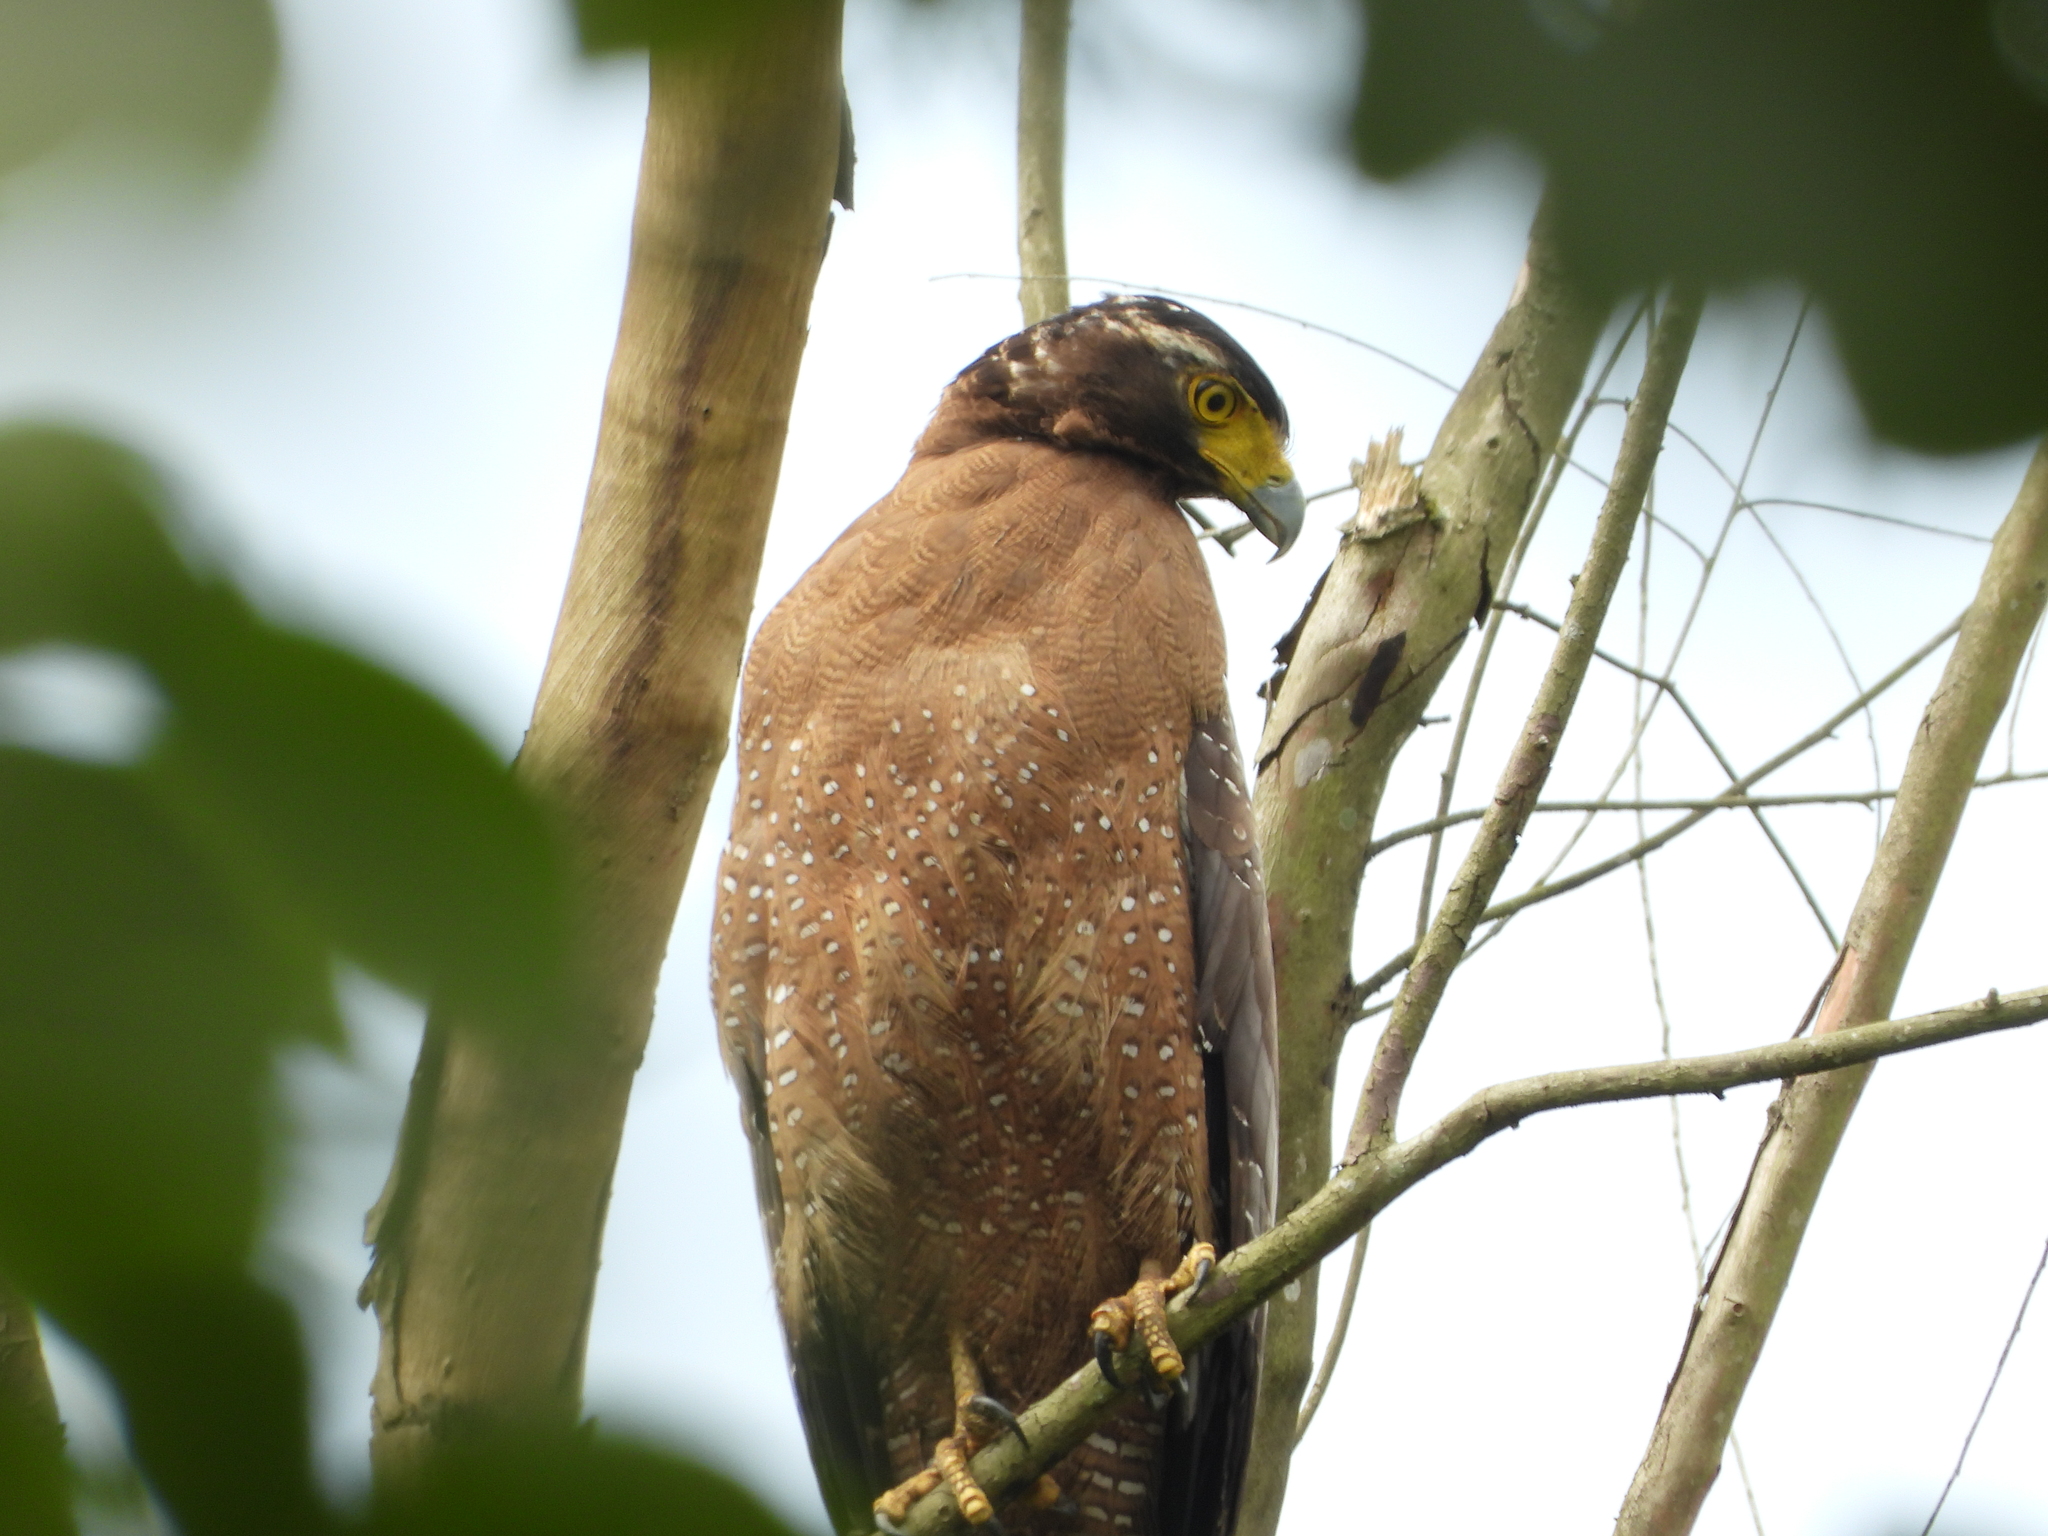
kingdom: Animalia
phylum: Chordata
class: Aves
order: Accipitriformes
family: Accipitridae
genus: Spilornis
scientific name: Spilornis cheela
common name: Crested serpent eagle
